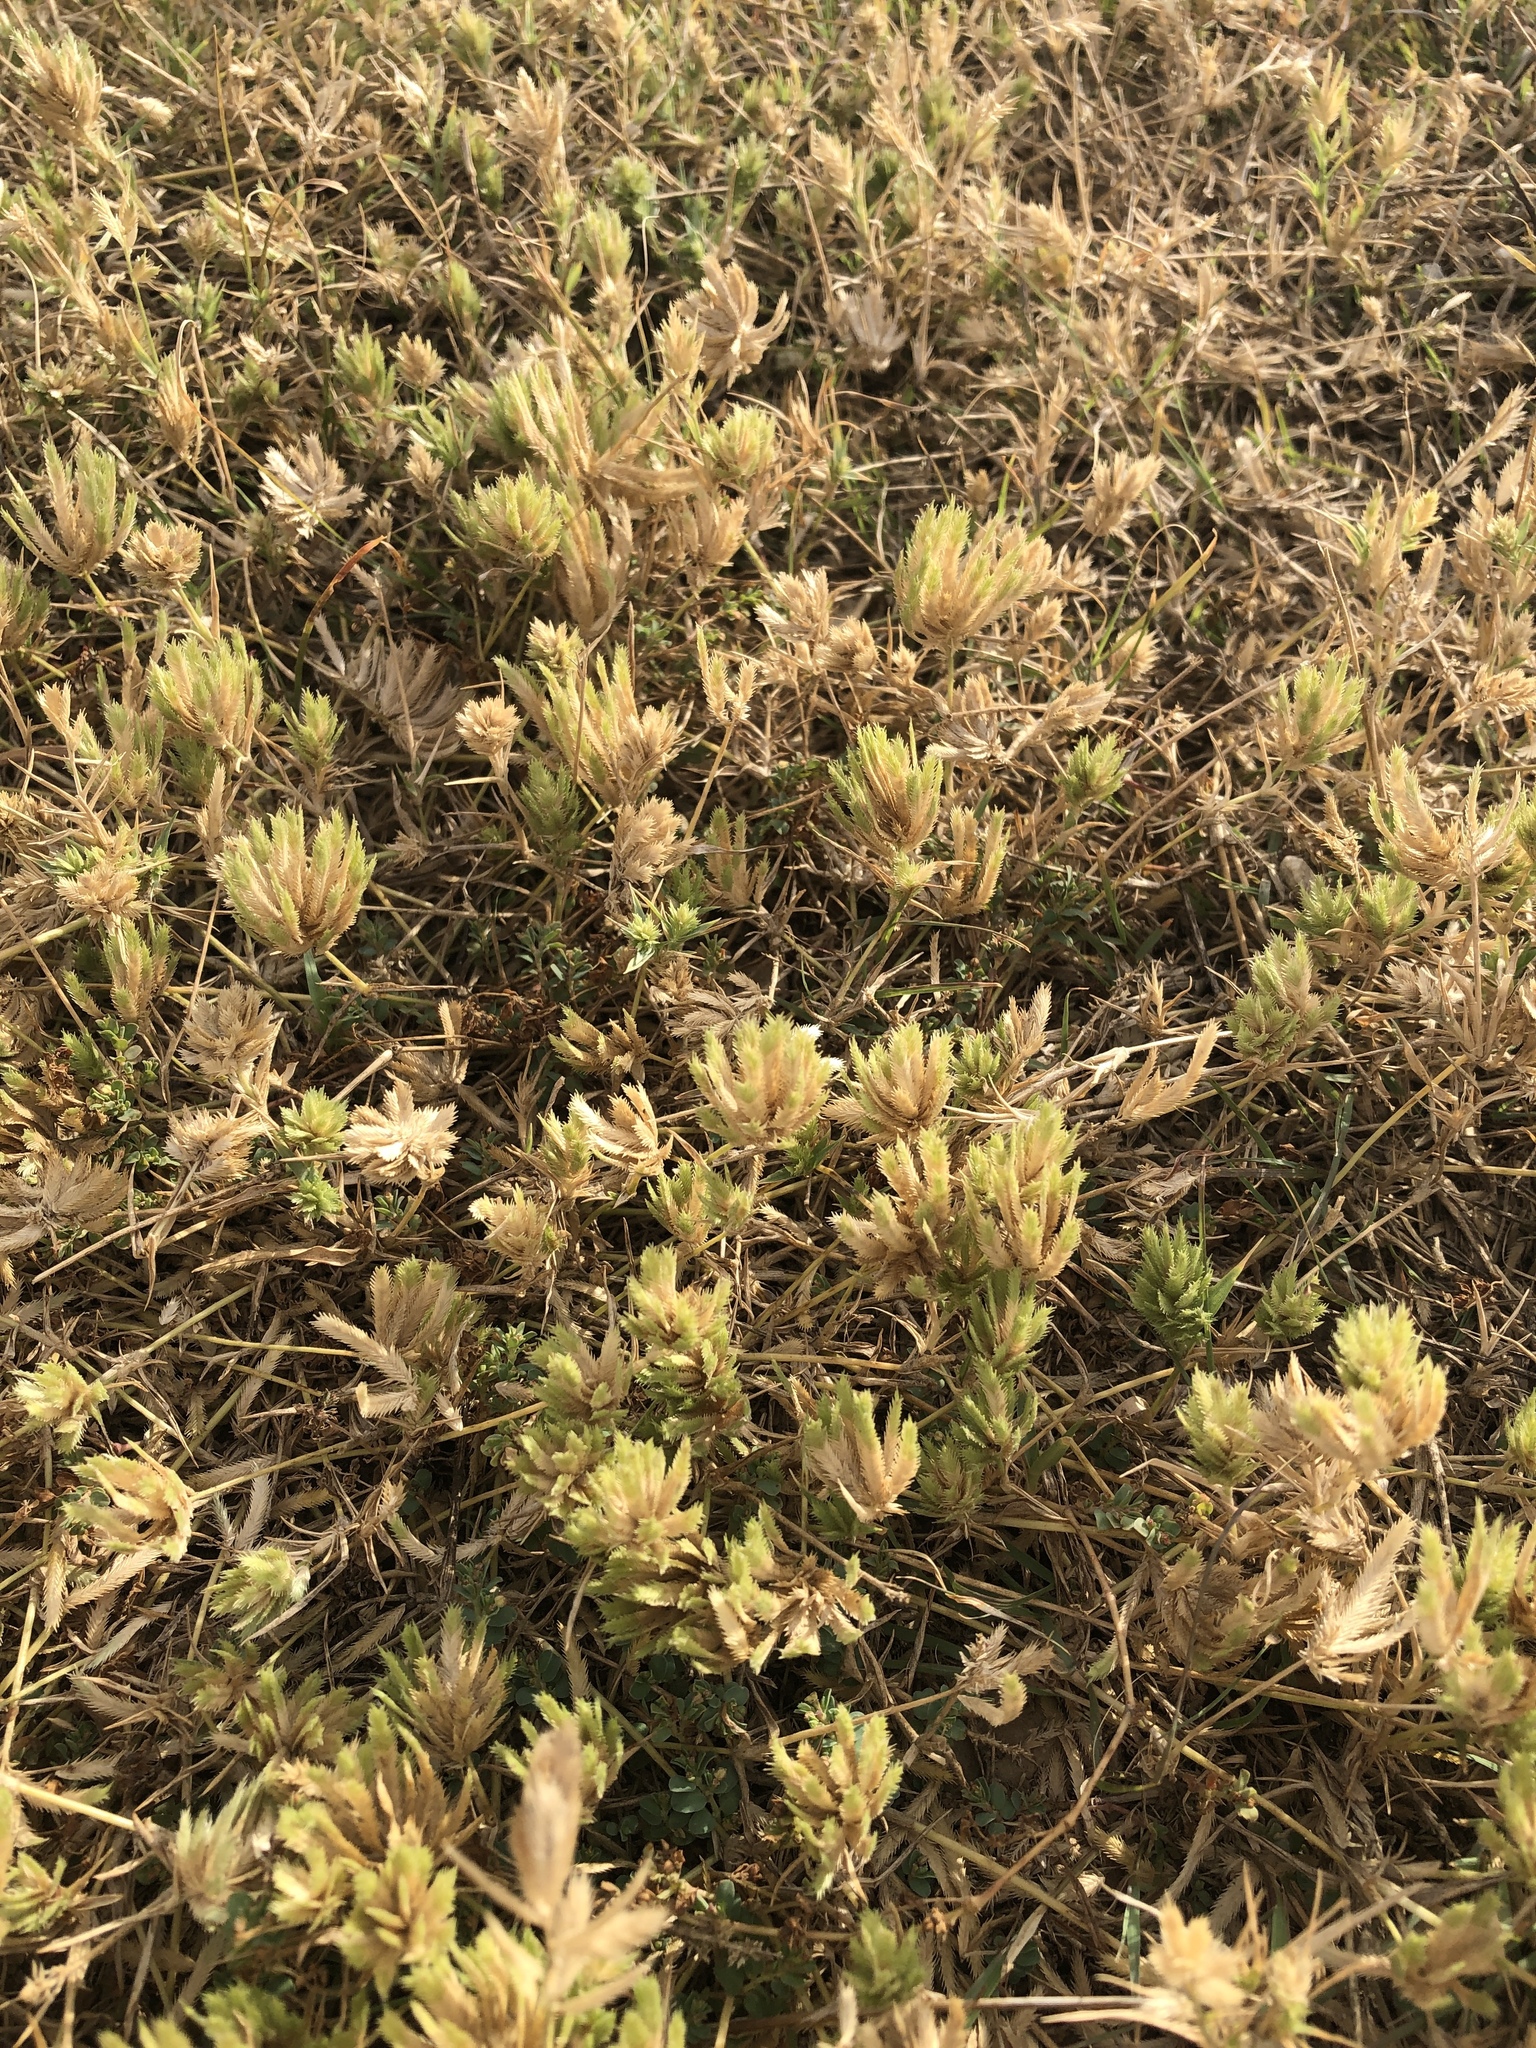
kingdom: Plantae
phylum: Tracheophyta
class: Liliopsida
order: Poales
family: Poaceae
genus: Eragrostis
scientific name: Eragrostis reptans
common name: Creeping love grass
